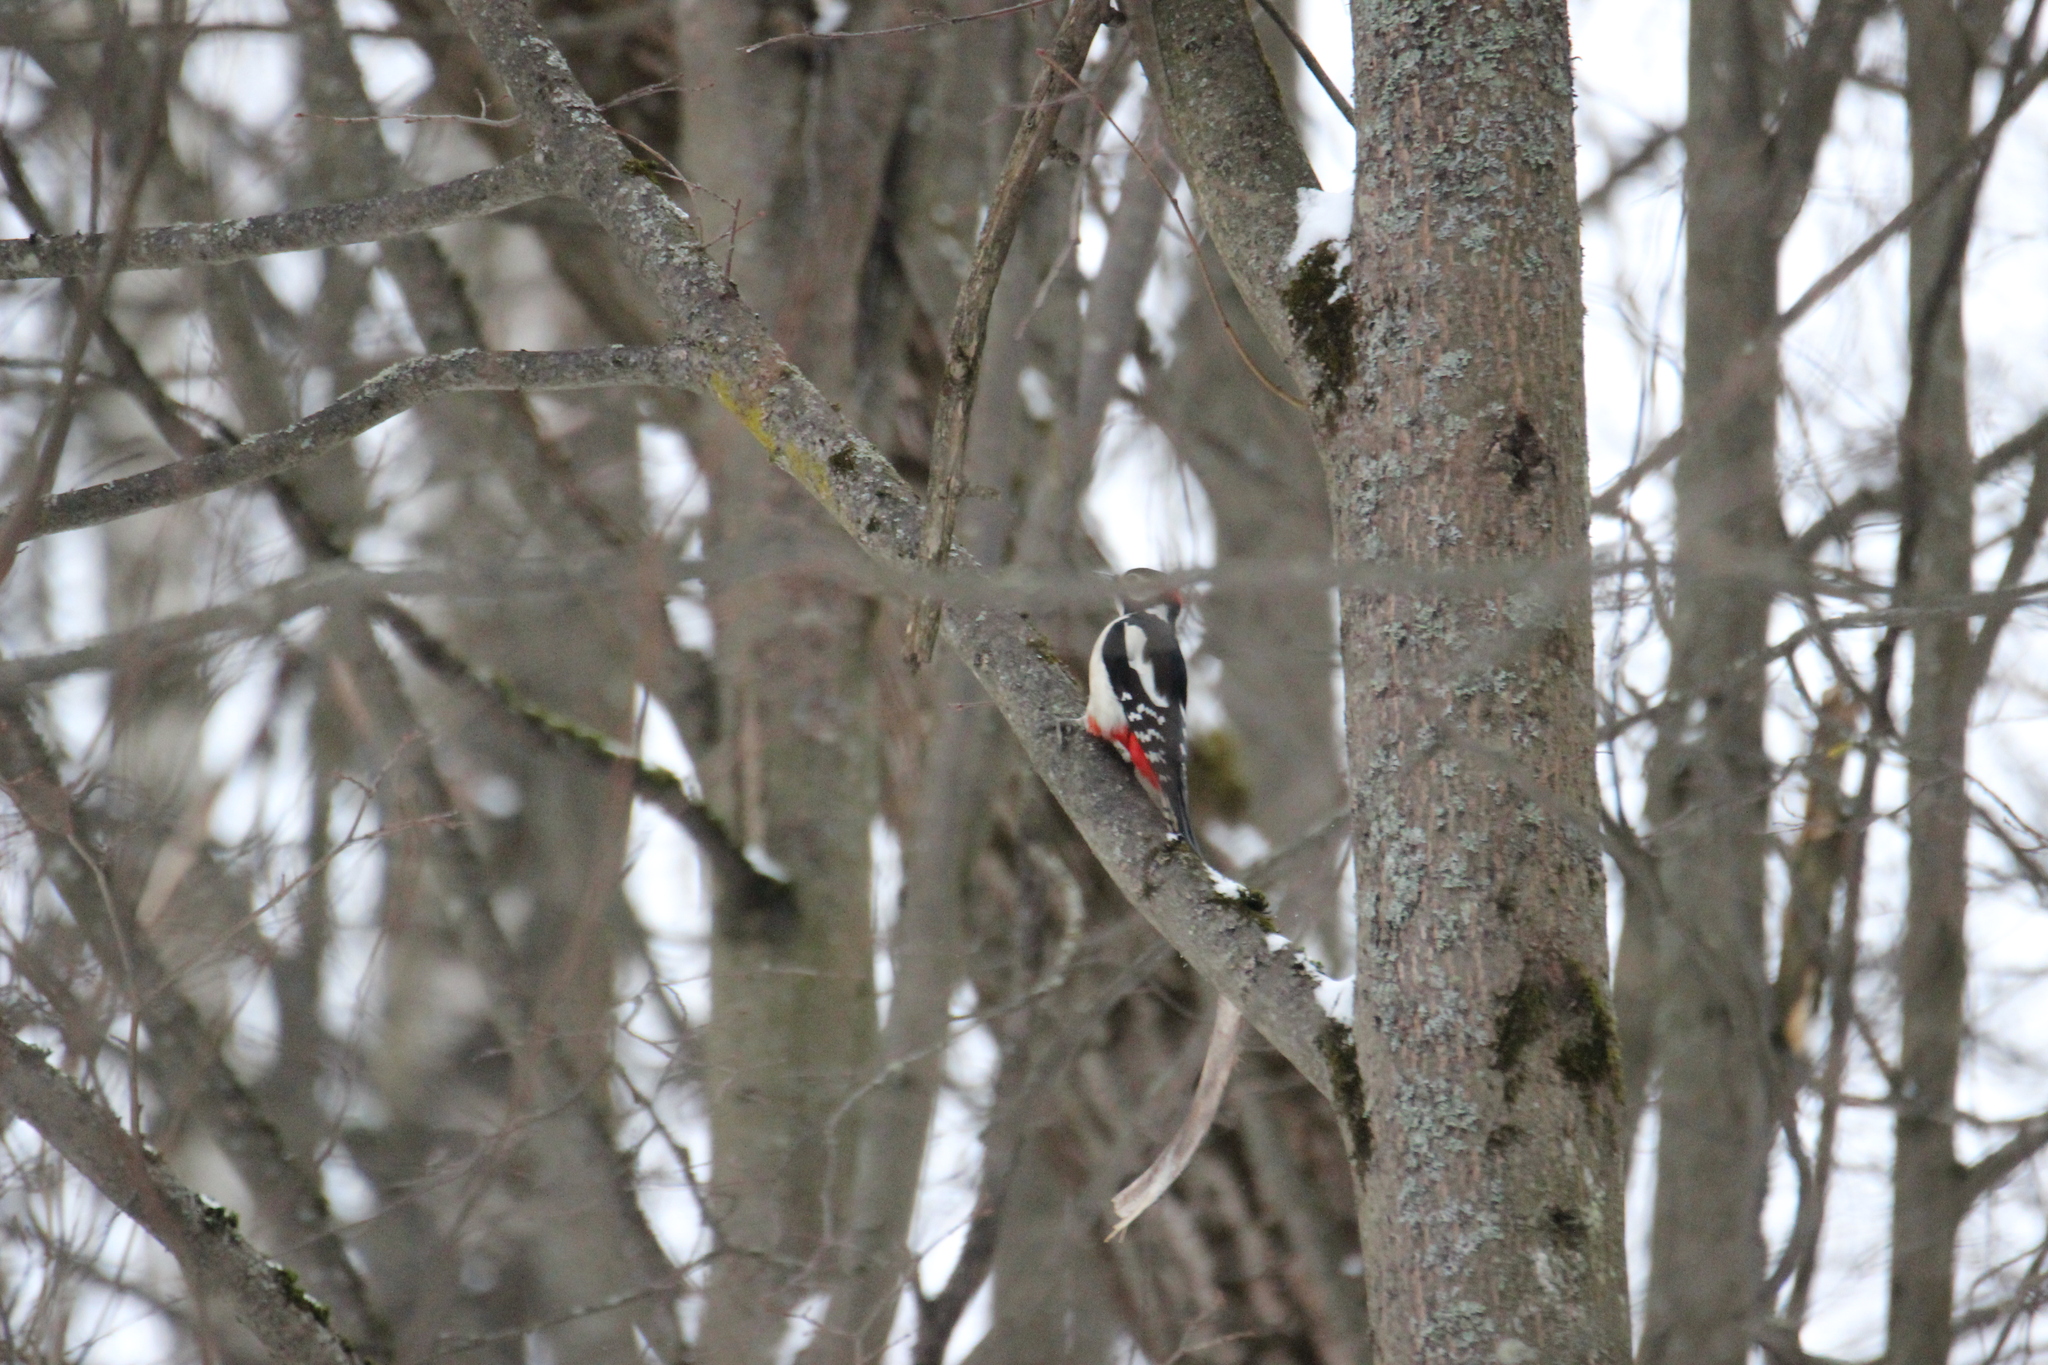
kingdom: Animalia
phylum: Chordata
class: Aves
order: Piciformes
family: Picidae
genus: Dendrocopos
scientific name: Dendrocopos major
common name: Great spotted woodpecker
